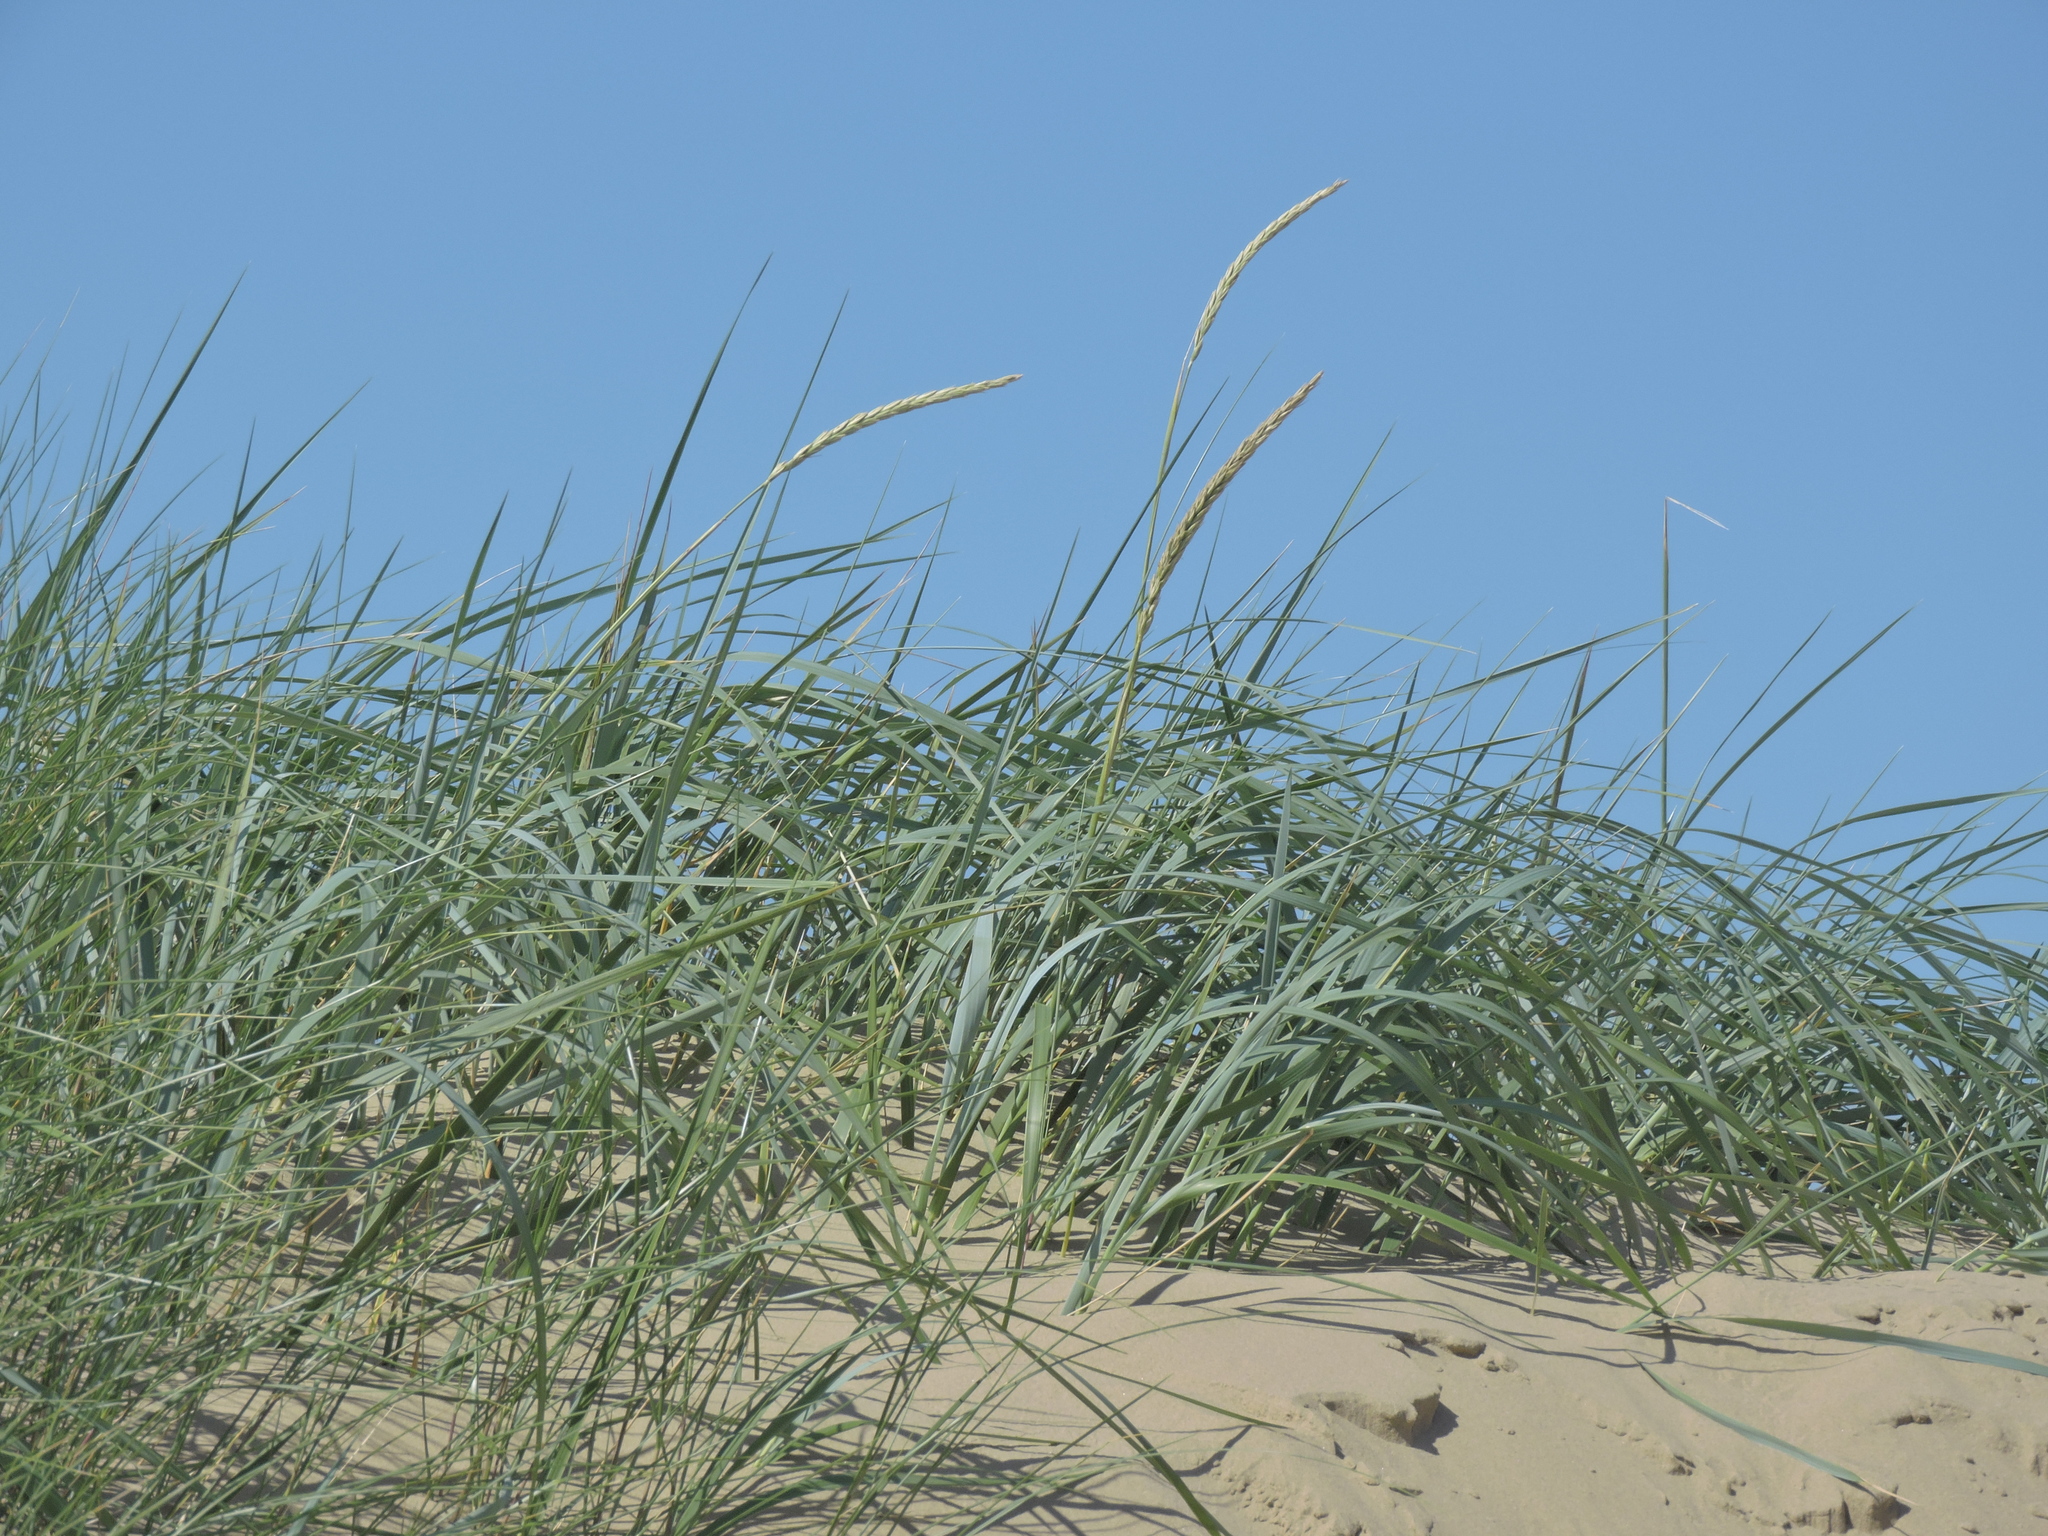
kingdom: Plantae
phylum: Tracheophyta
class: Liliopsida
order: Poales
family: Poaceae
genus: Leymus
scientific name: Leymus arenarius
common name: Lyme-grass
